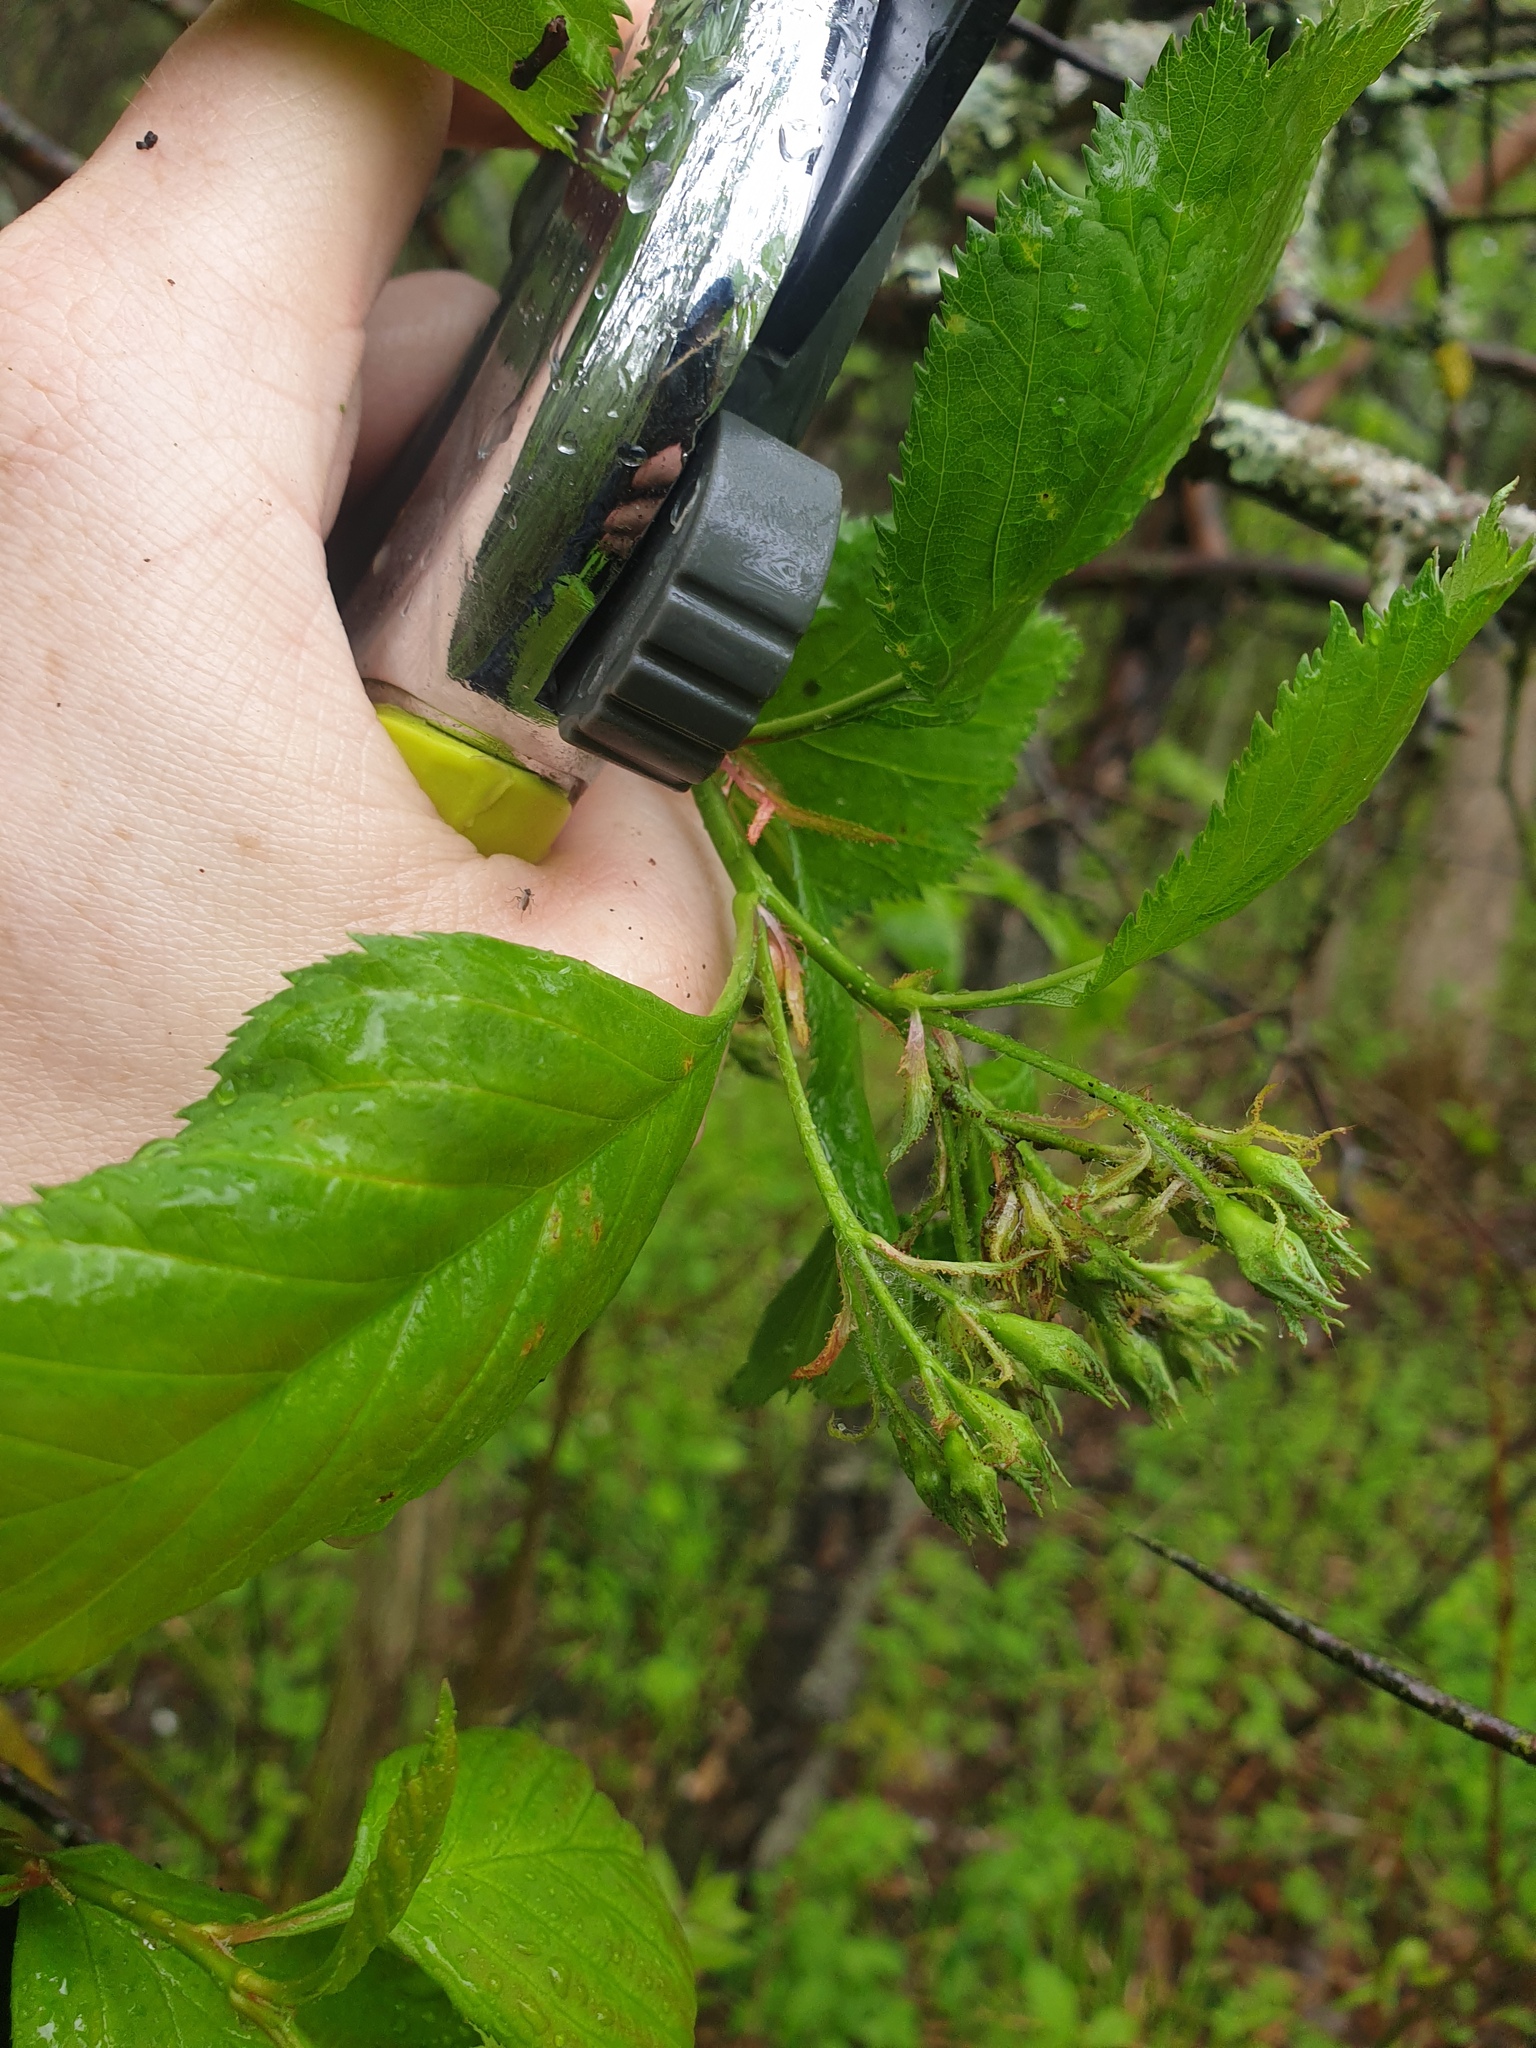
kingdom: Plantae
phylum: Tracheophyta
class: Magnoliopsida
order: Rosales
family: Rosaceae
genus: Crataegus
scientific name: Crataegus macracantha
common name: Large-thorn hawthorn
